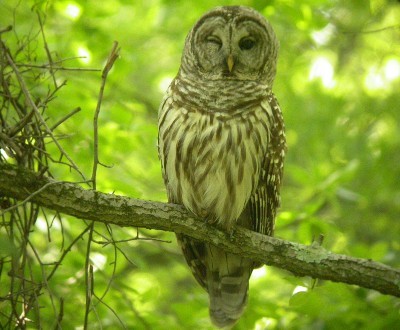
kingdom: Animalia
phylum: Chordata
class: Aves
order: Strigiformes
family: Strigidae
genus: Strix
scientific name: Strix varia
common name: Barred owl
